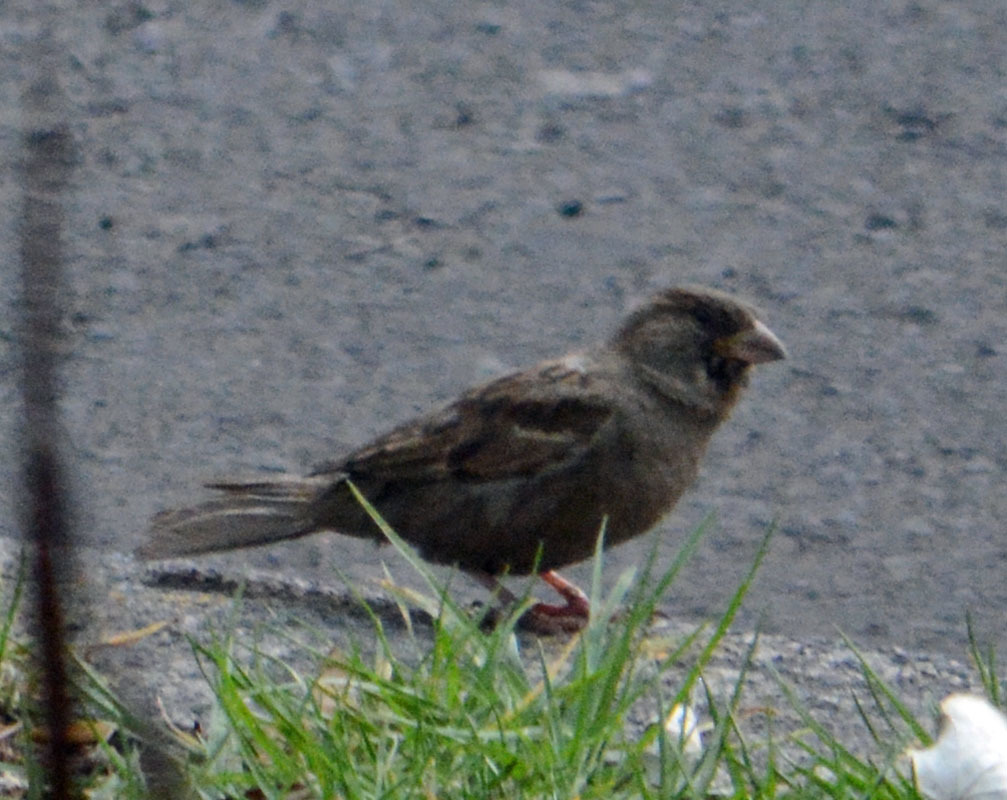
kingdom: Animalia
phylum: Chordata
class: Aves
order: Passeriformes
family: Passeridae
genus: Passer
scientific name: Passer domesticus
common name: House sparrow
